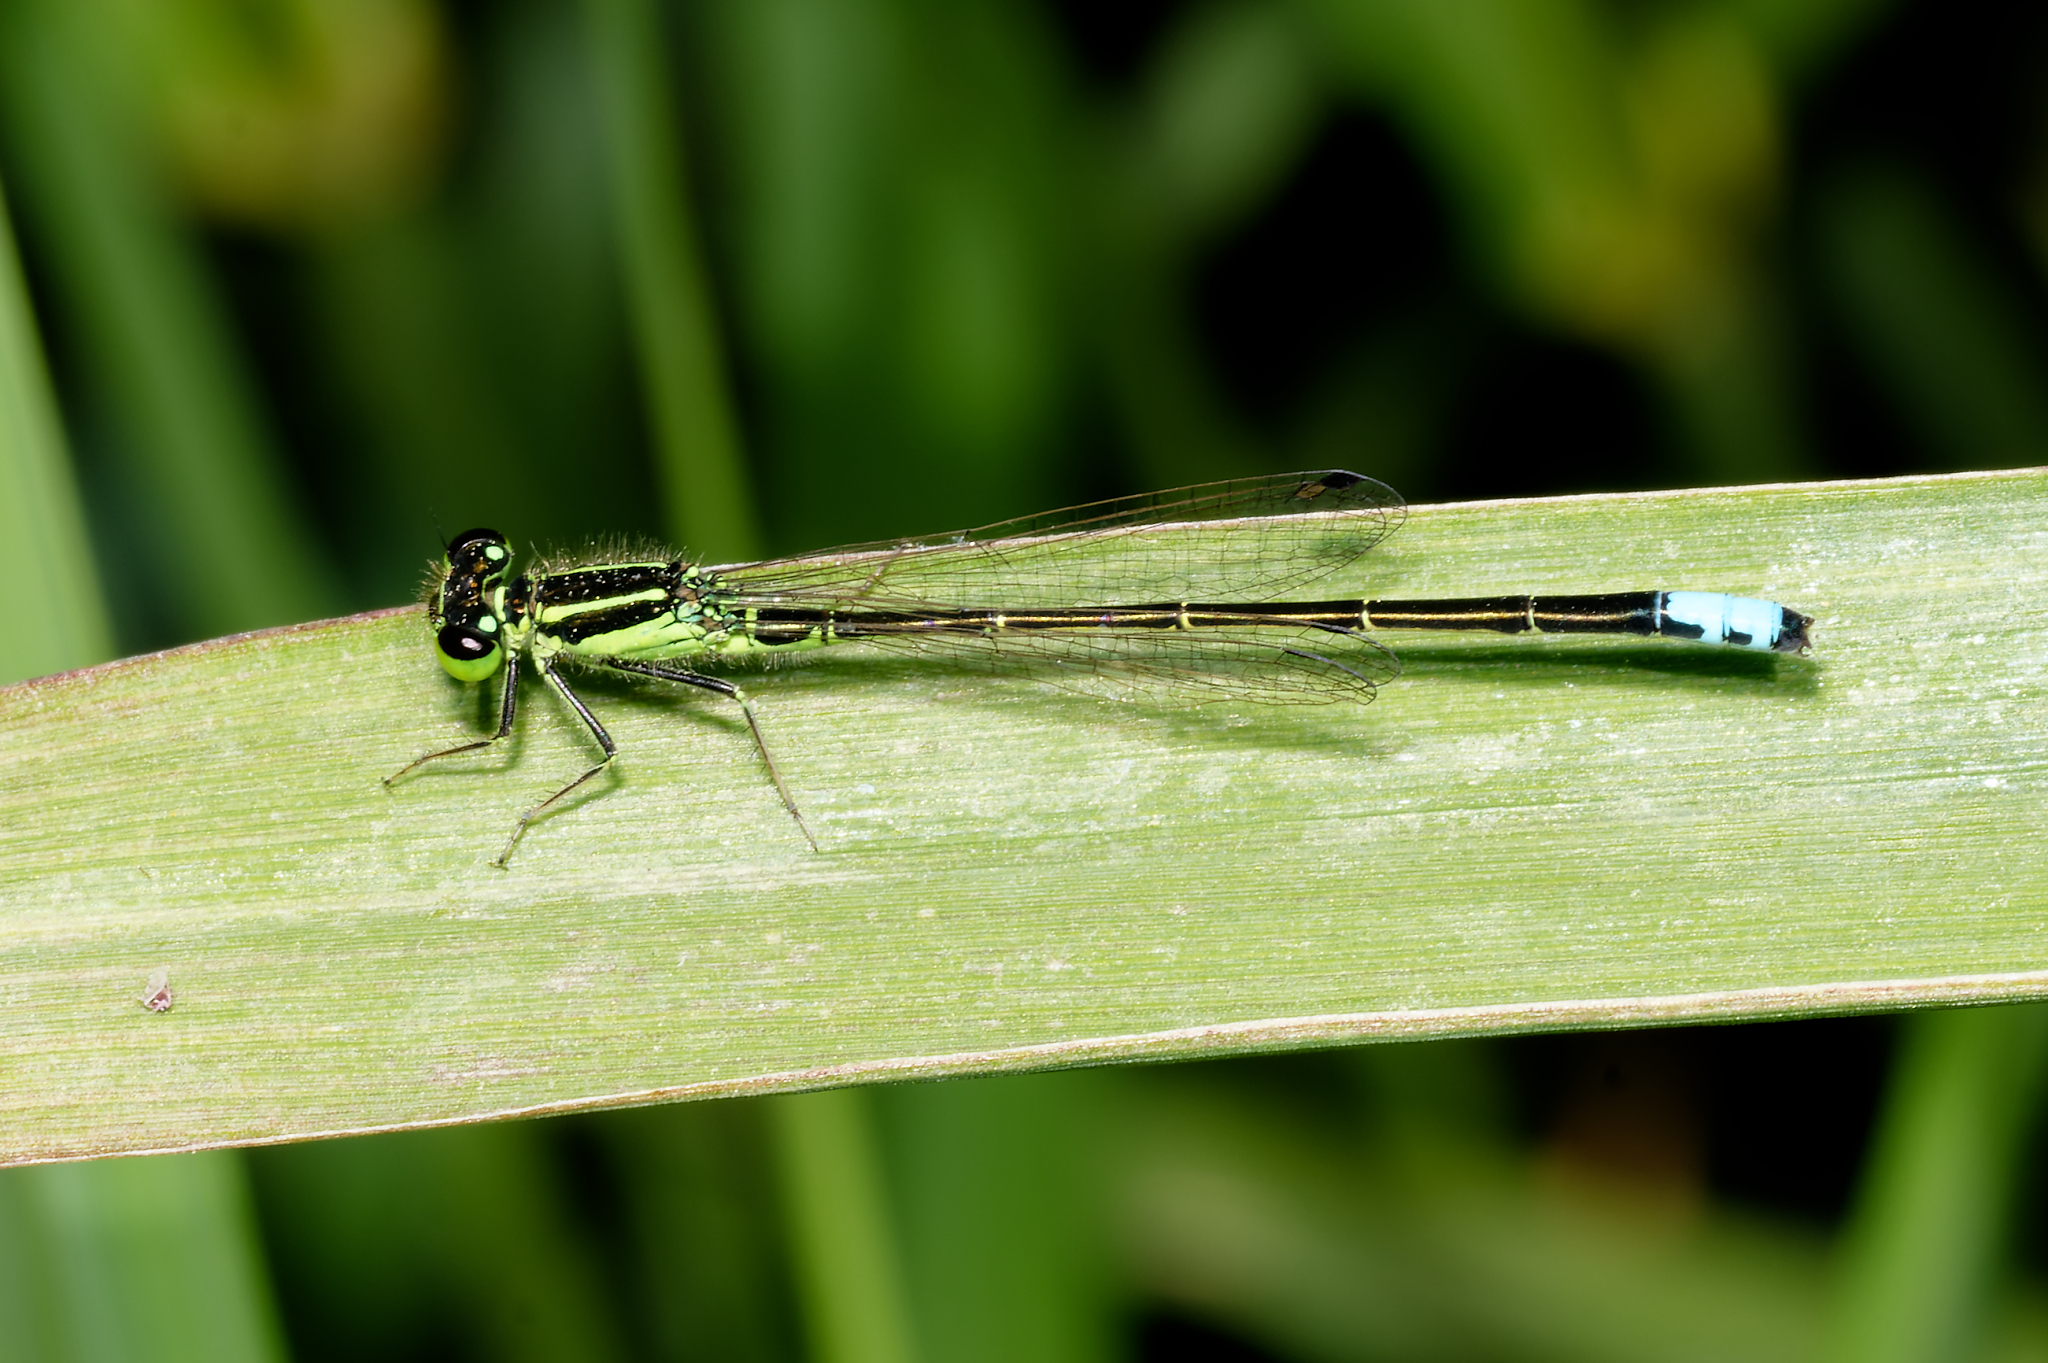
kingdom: Animalia
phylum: Arthropoda
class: Insecta
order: Odonata
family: Coenagrionidae
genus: Ischnura
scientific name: Ischnura verticalis
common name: Eastern forktail
